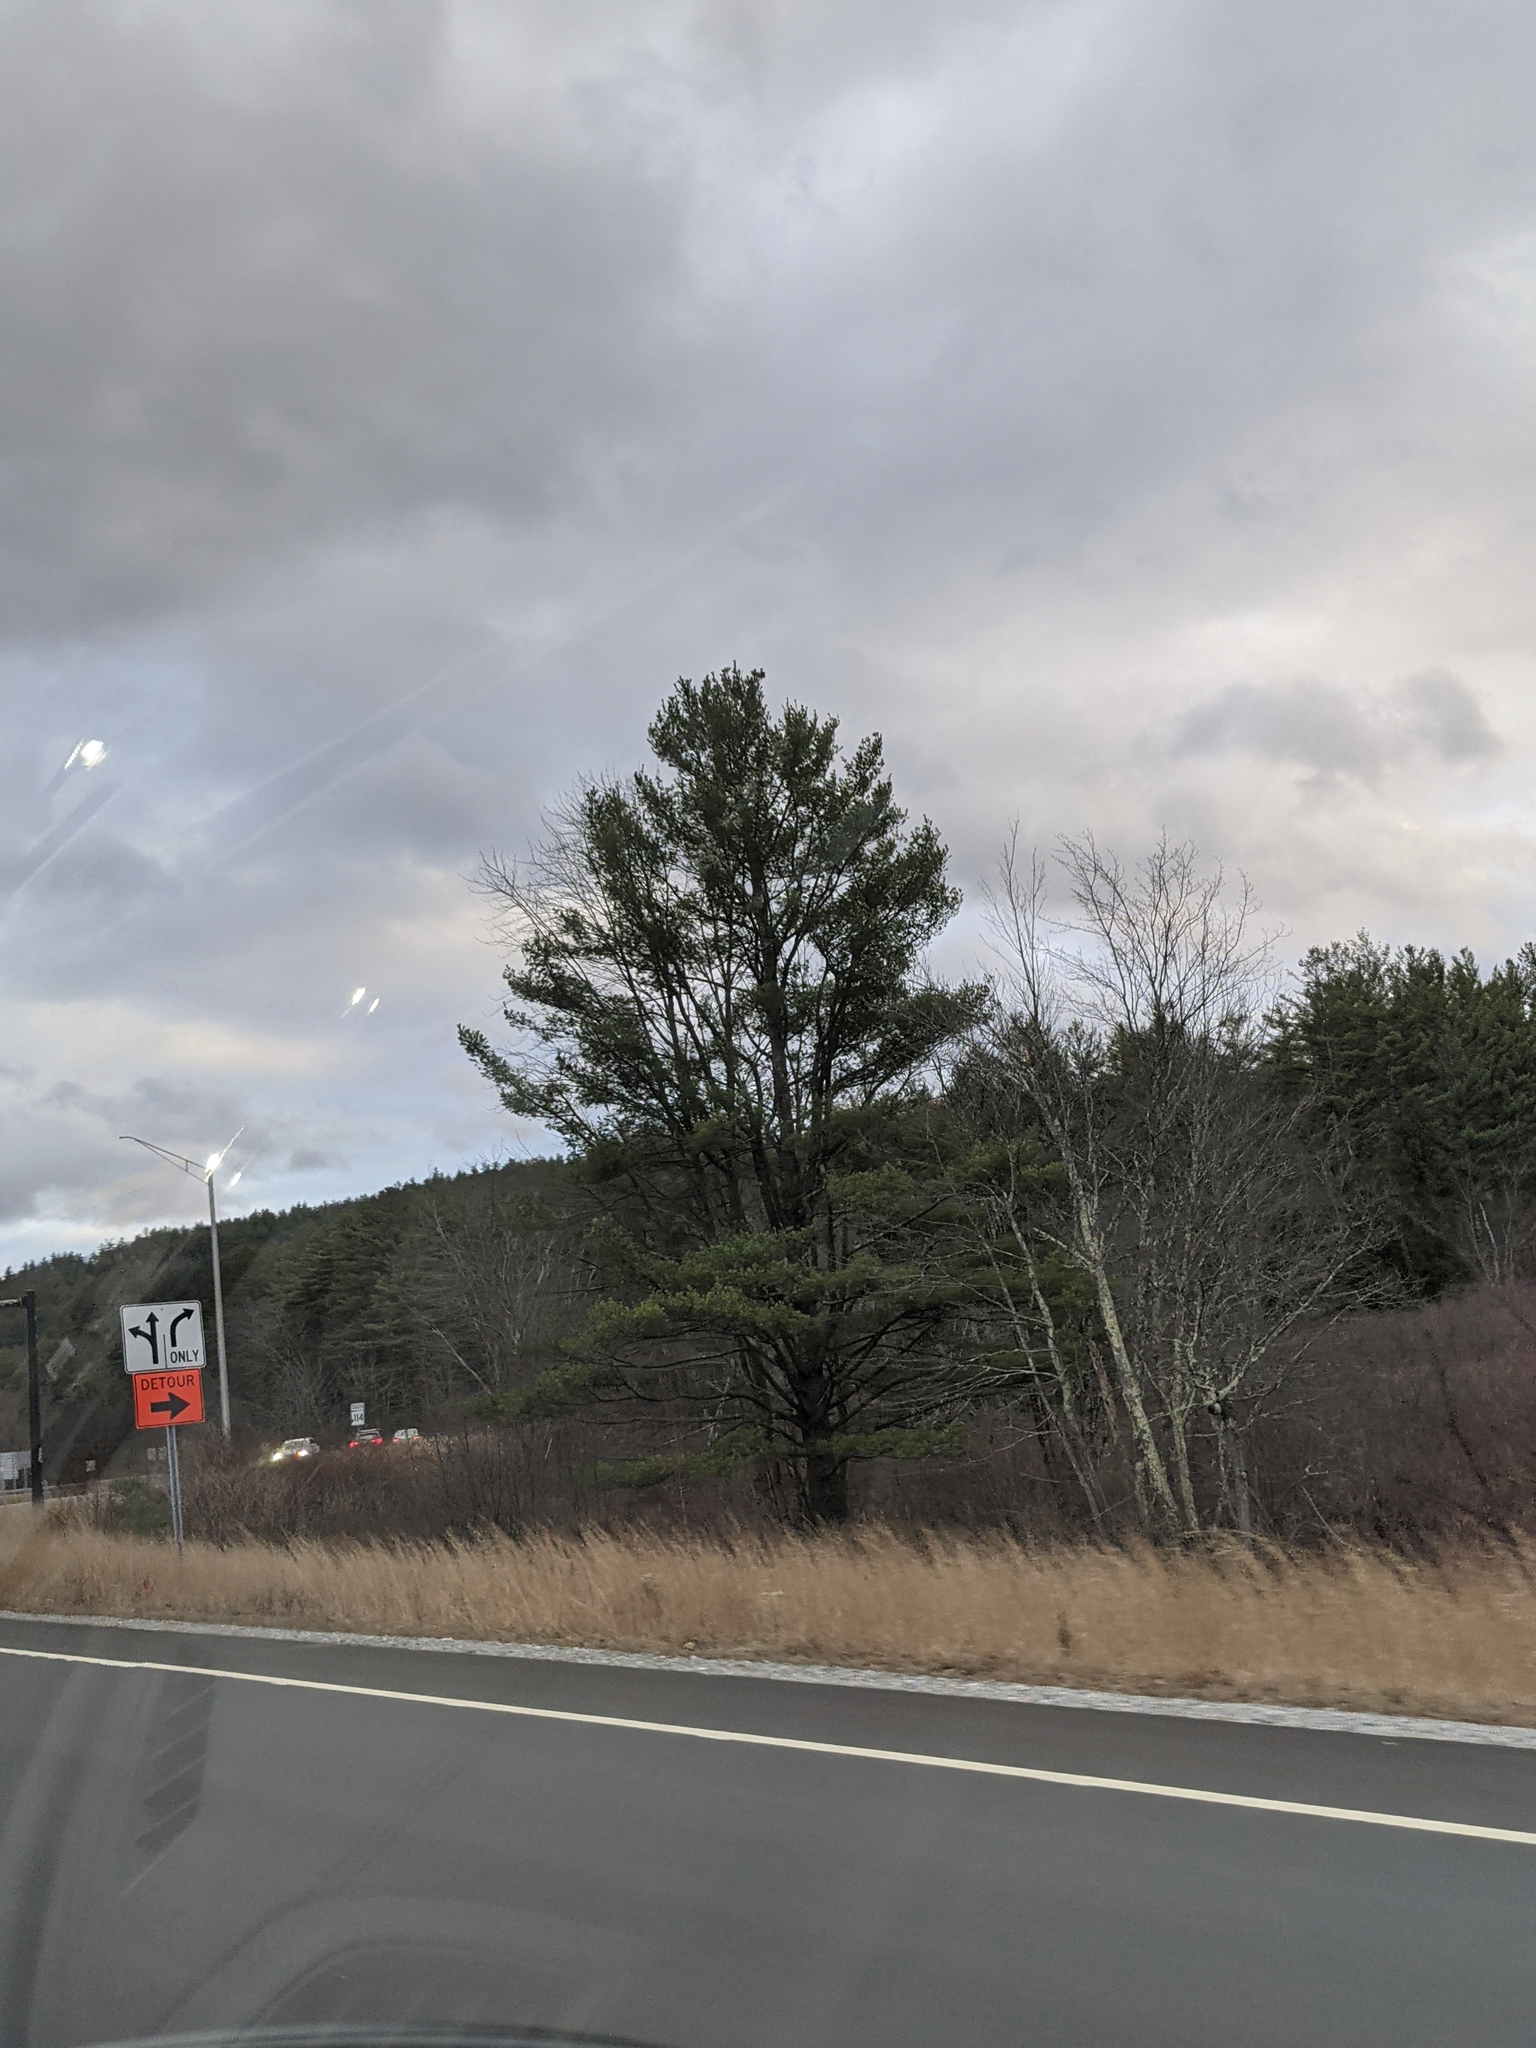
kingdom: Plantae
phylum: Tracheophyta
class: Pinopsida
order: Pinales
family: Pinaceae
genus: Pinus
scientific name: Pinus strobus
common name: Weymouth pine
